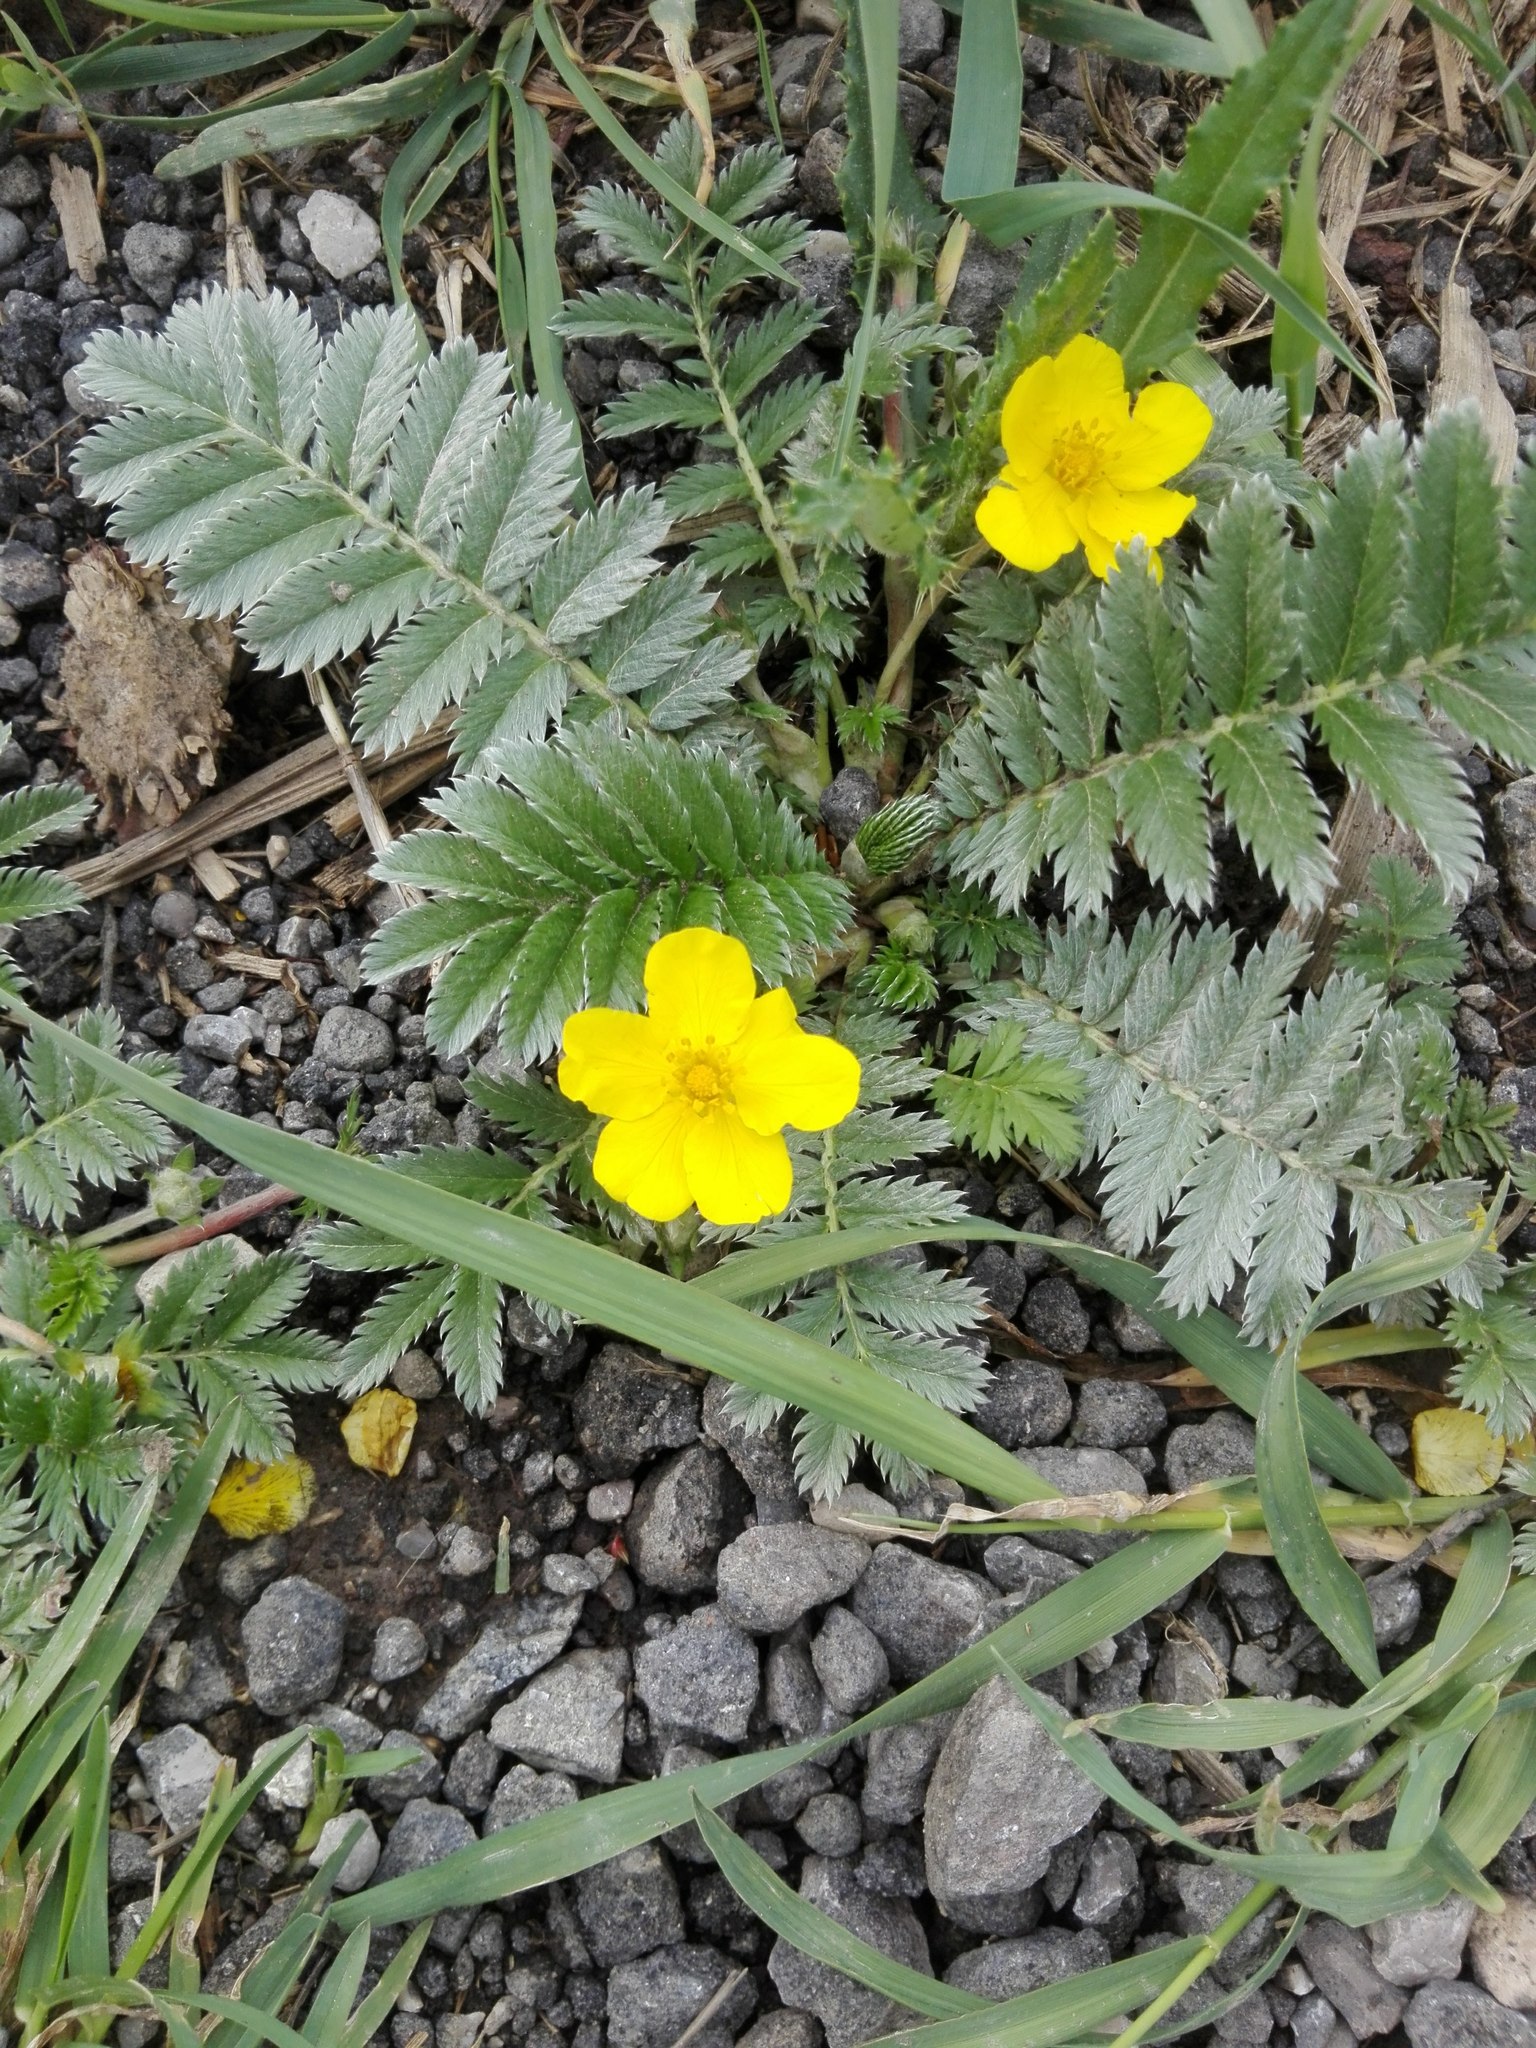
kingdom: Plantae
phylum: Tracheophyta
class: Magnoliopsida
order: Rosales
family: Rosaceae
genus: Argentina
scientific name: Argentina anserina
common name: Common silverweed
